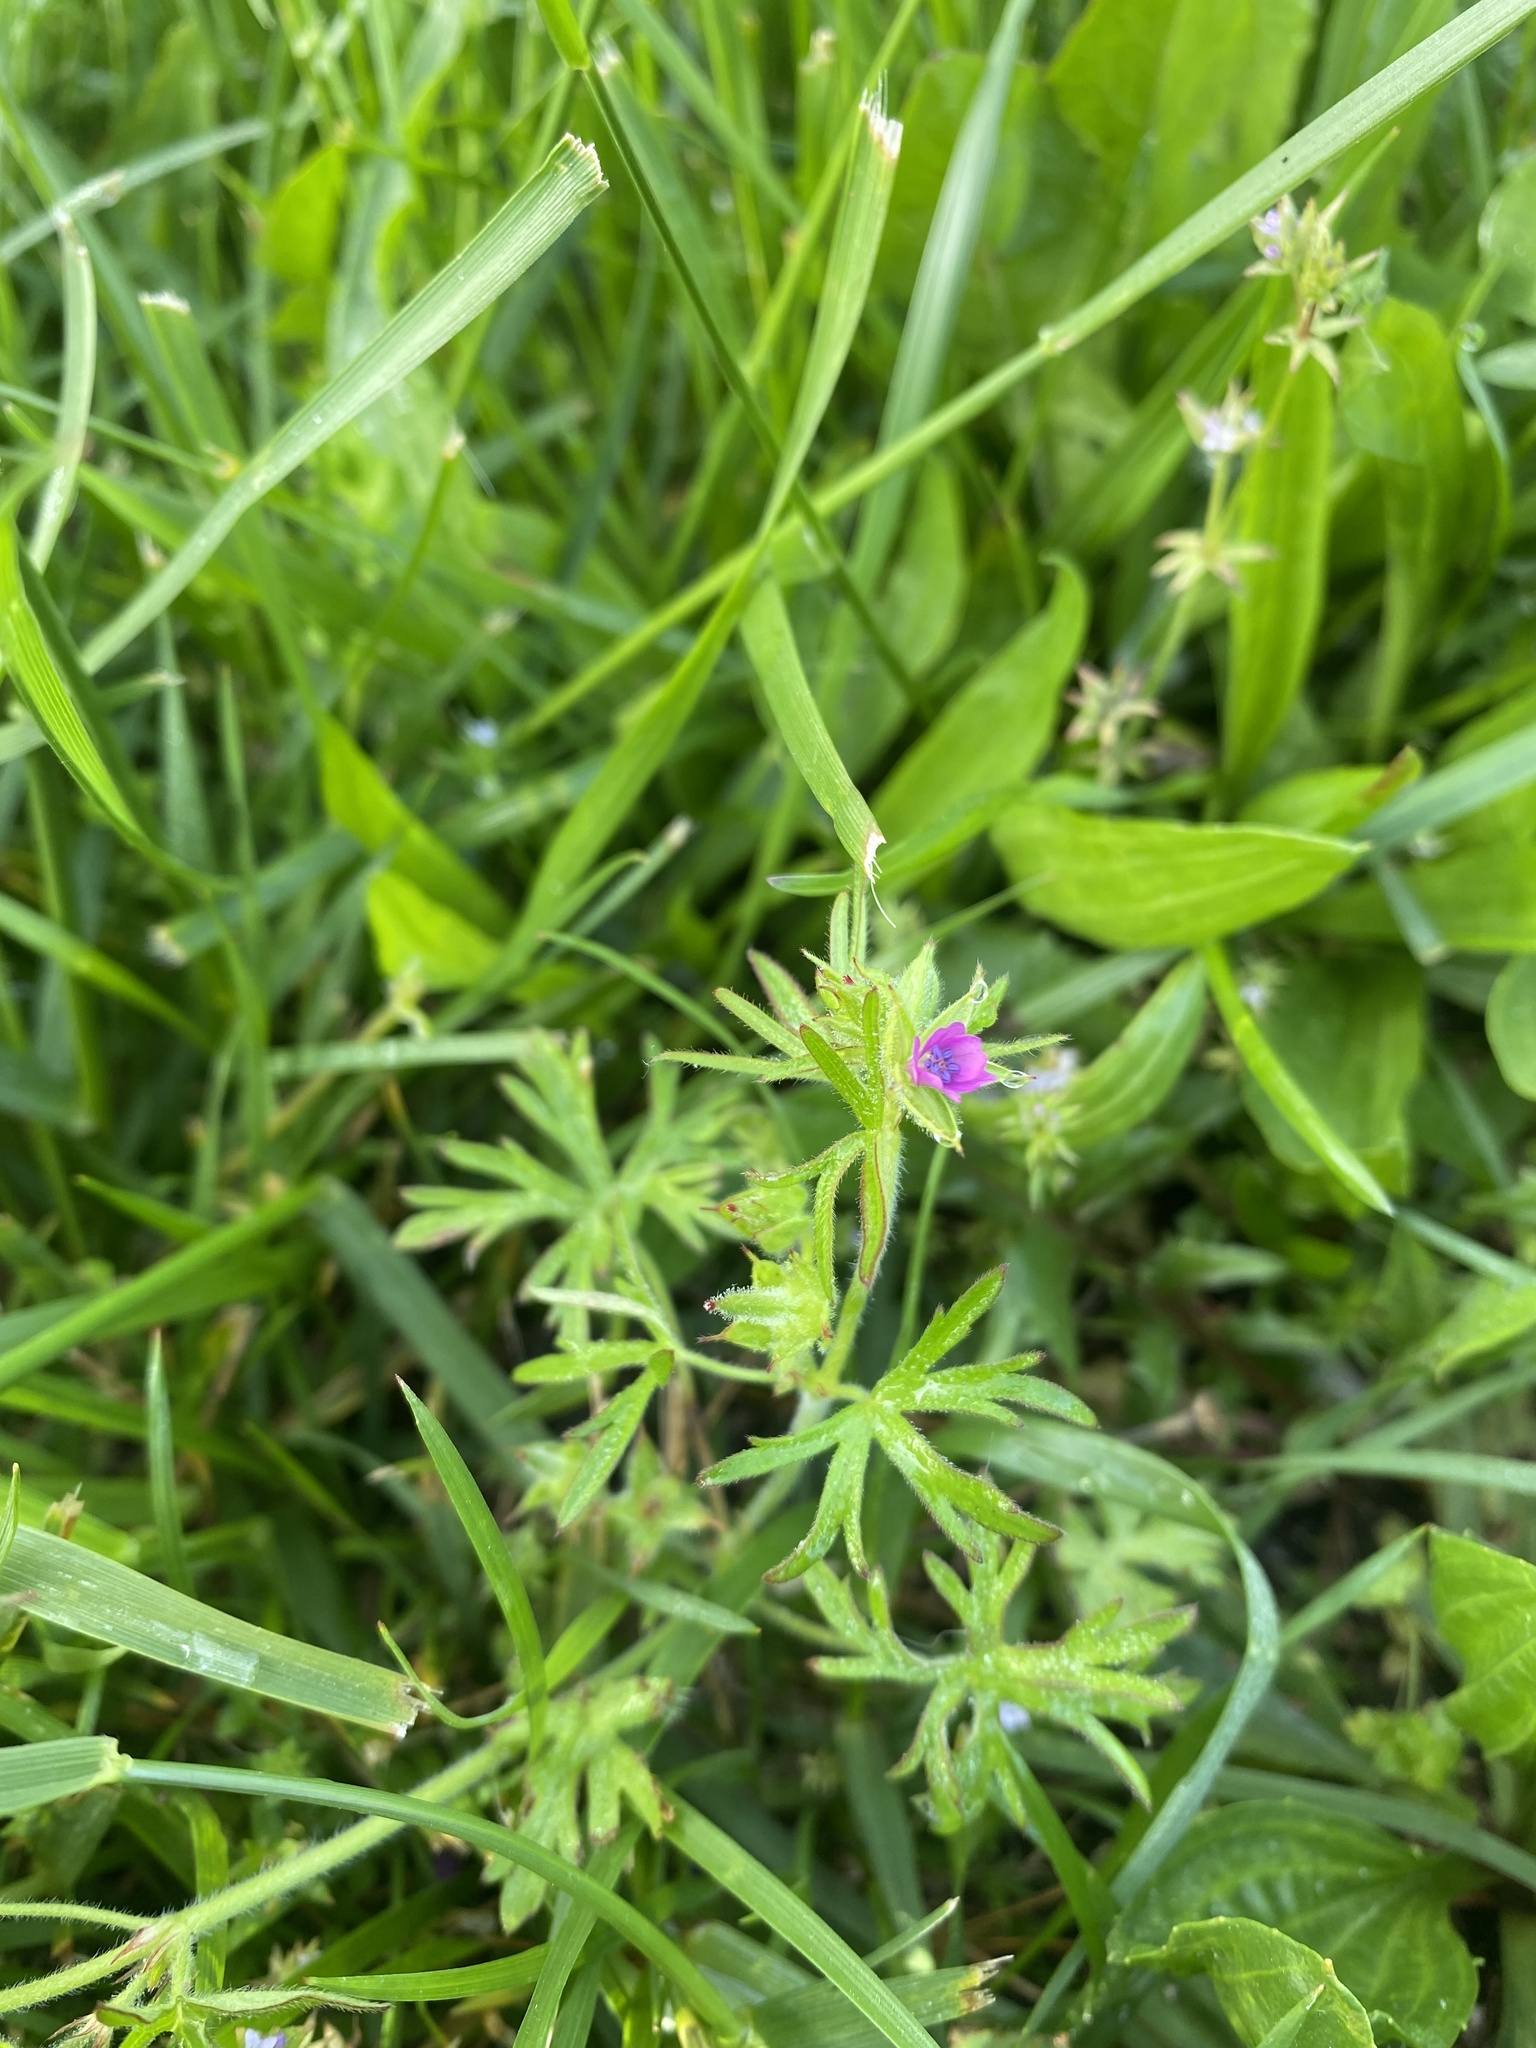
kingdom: Plantae
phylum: Tracheophyta
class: Magnoliopsida
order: Geraniales
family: Geraniaceae
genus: Geranium
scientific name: Geranium dissectum
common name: Cut-leaved crane's-bill
